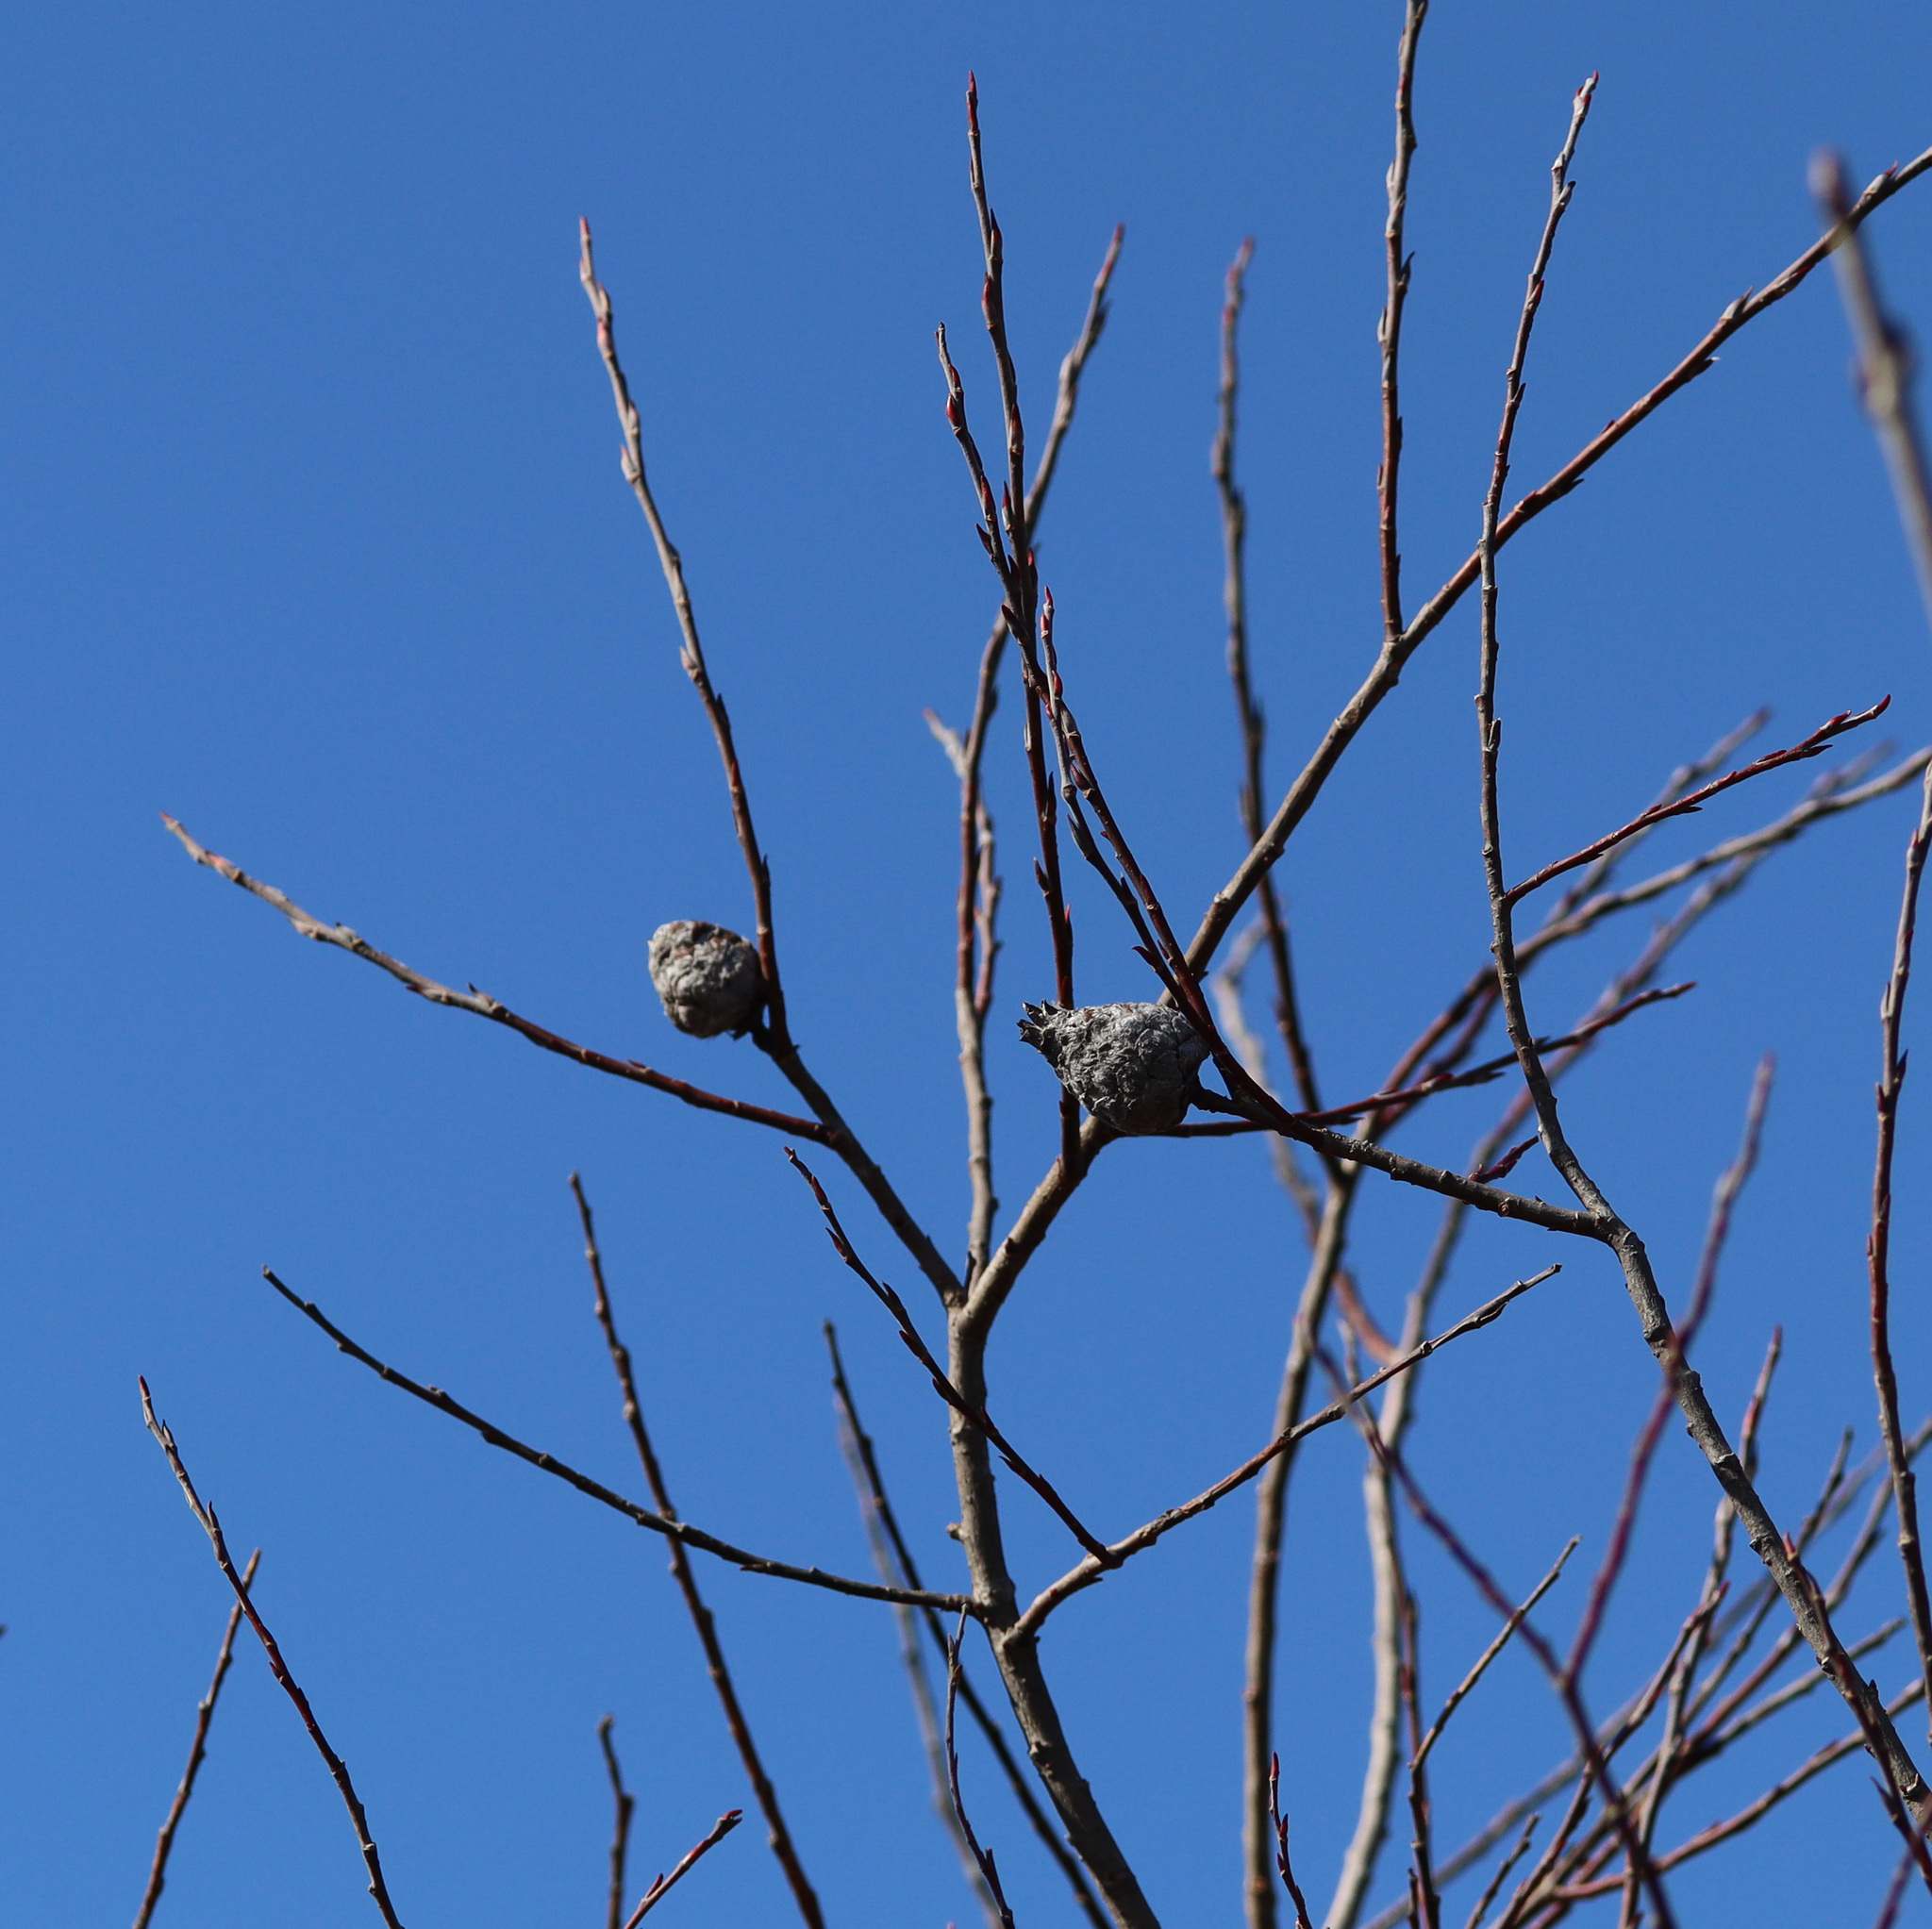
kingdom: Animalia
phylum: Arthropoda
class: Insecta
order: Diptera
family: Cecidomyiidae
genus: Rabdophaga
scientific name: Rabdophaga strobiloides
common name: Willow pinecone gall midge
